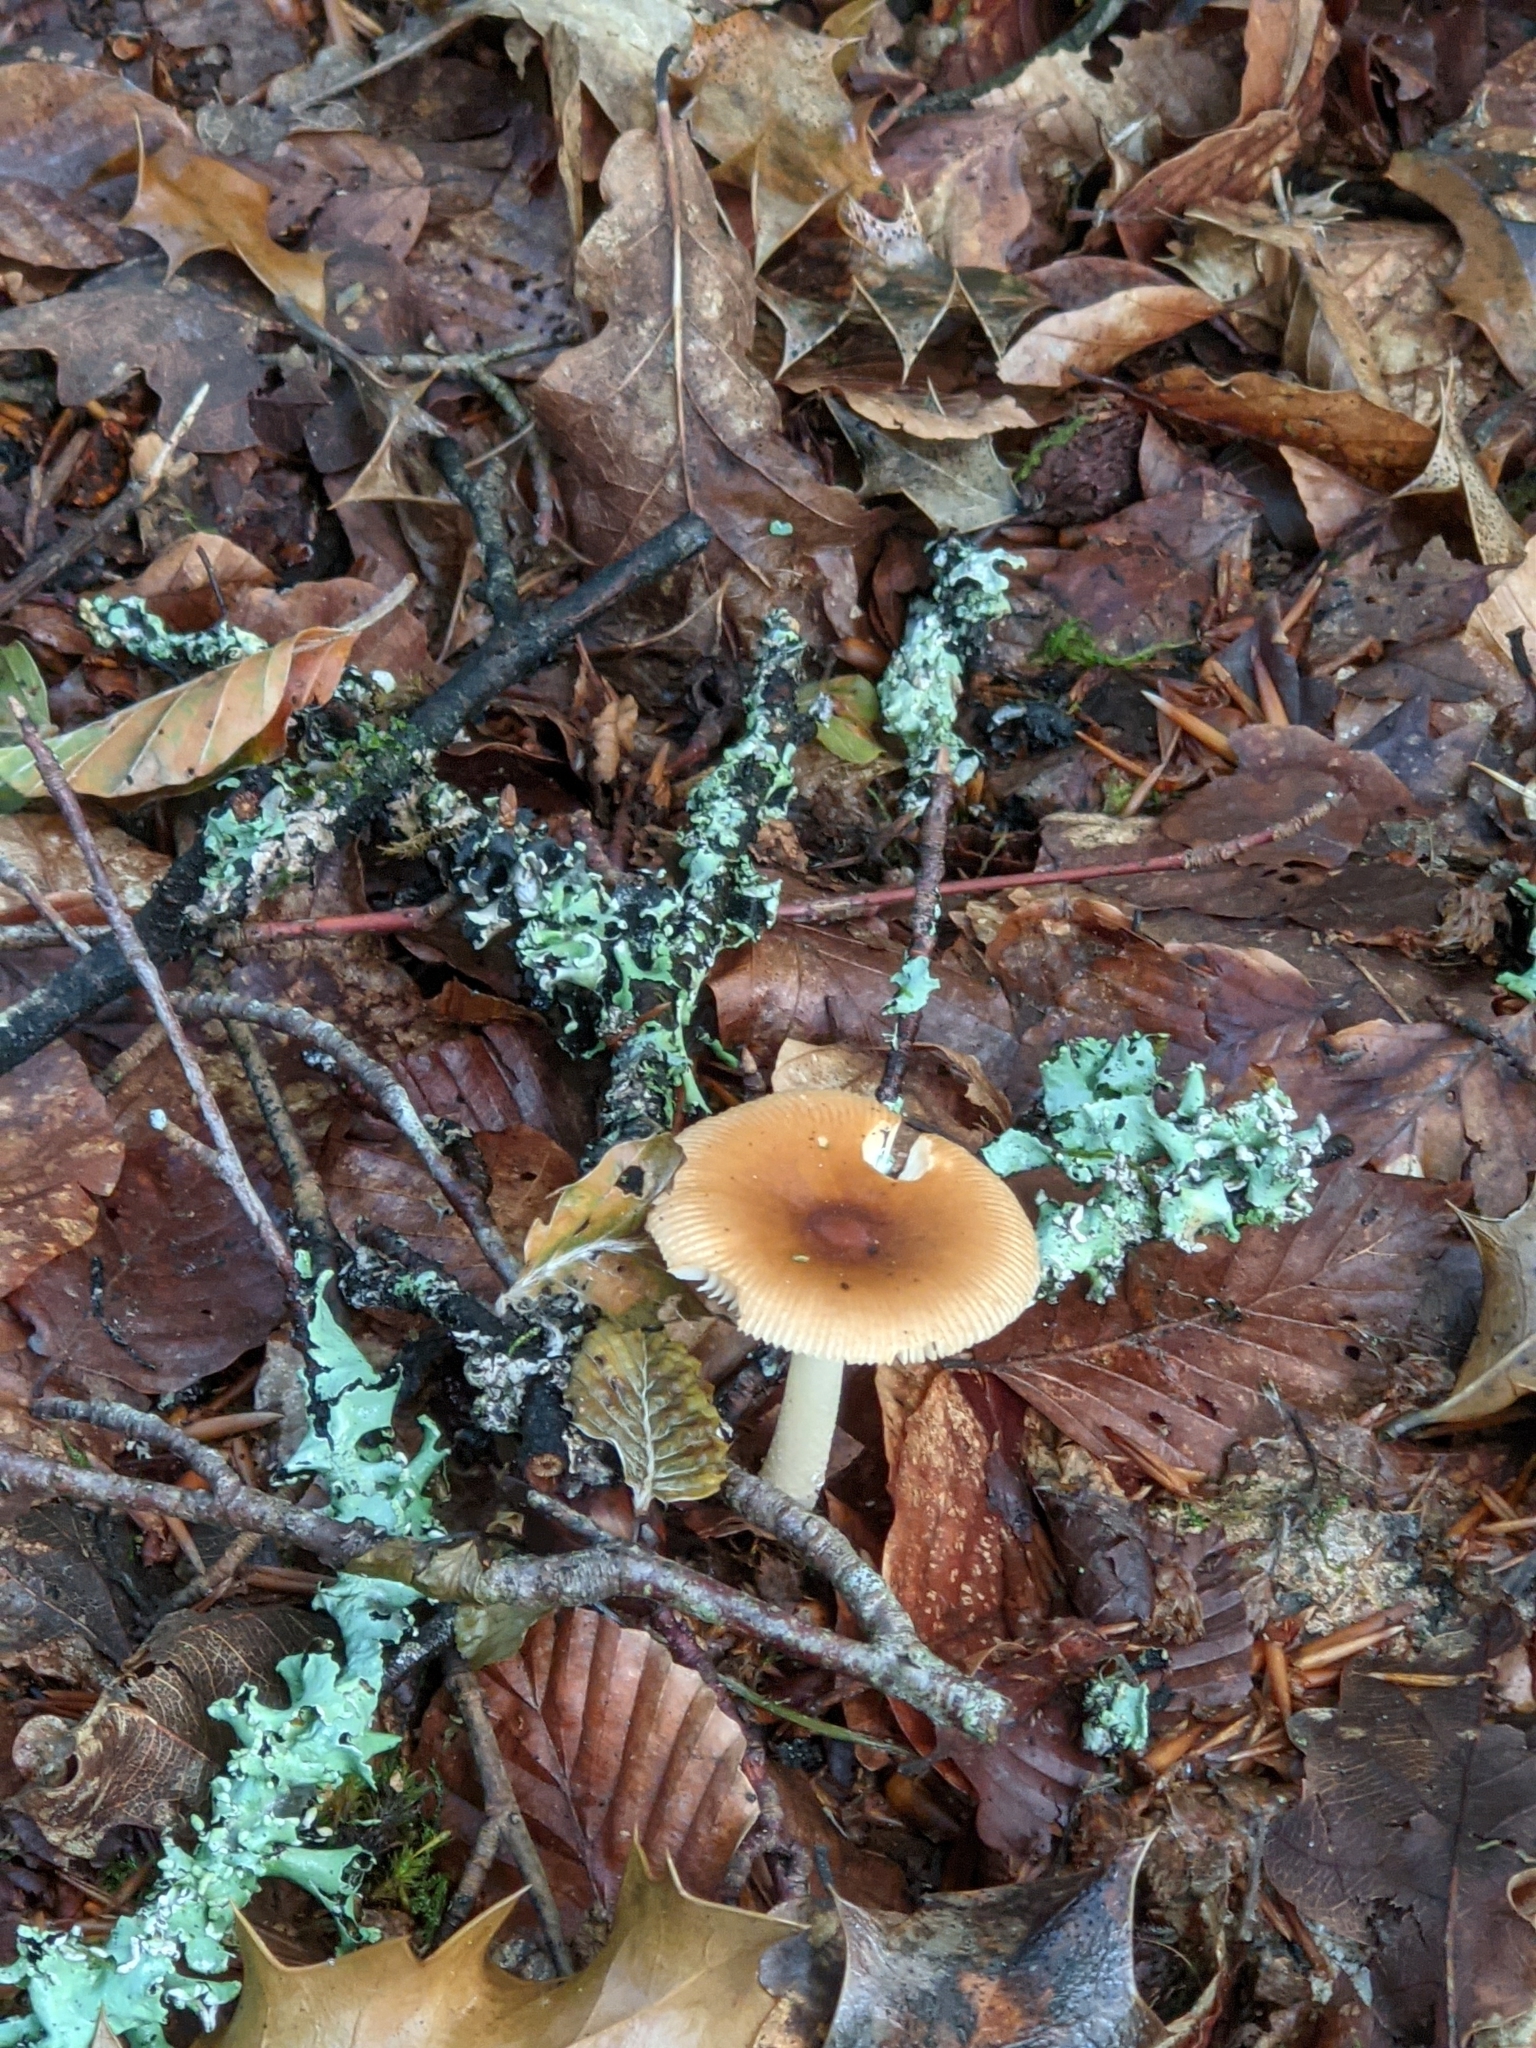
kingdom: Fungi
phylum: Basidiomycota
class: Agaricomycetes
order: Agaricales
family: Amanitaceae
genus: Amanita
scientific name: Amanita fulva
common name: Tawny grisette
